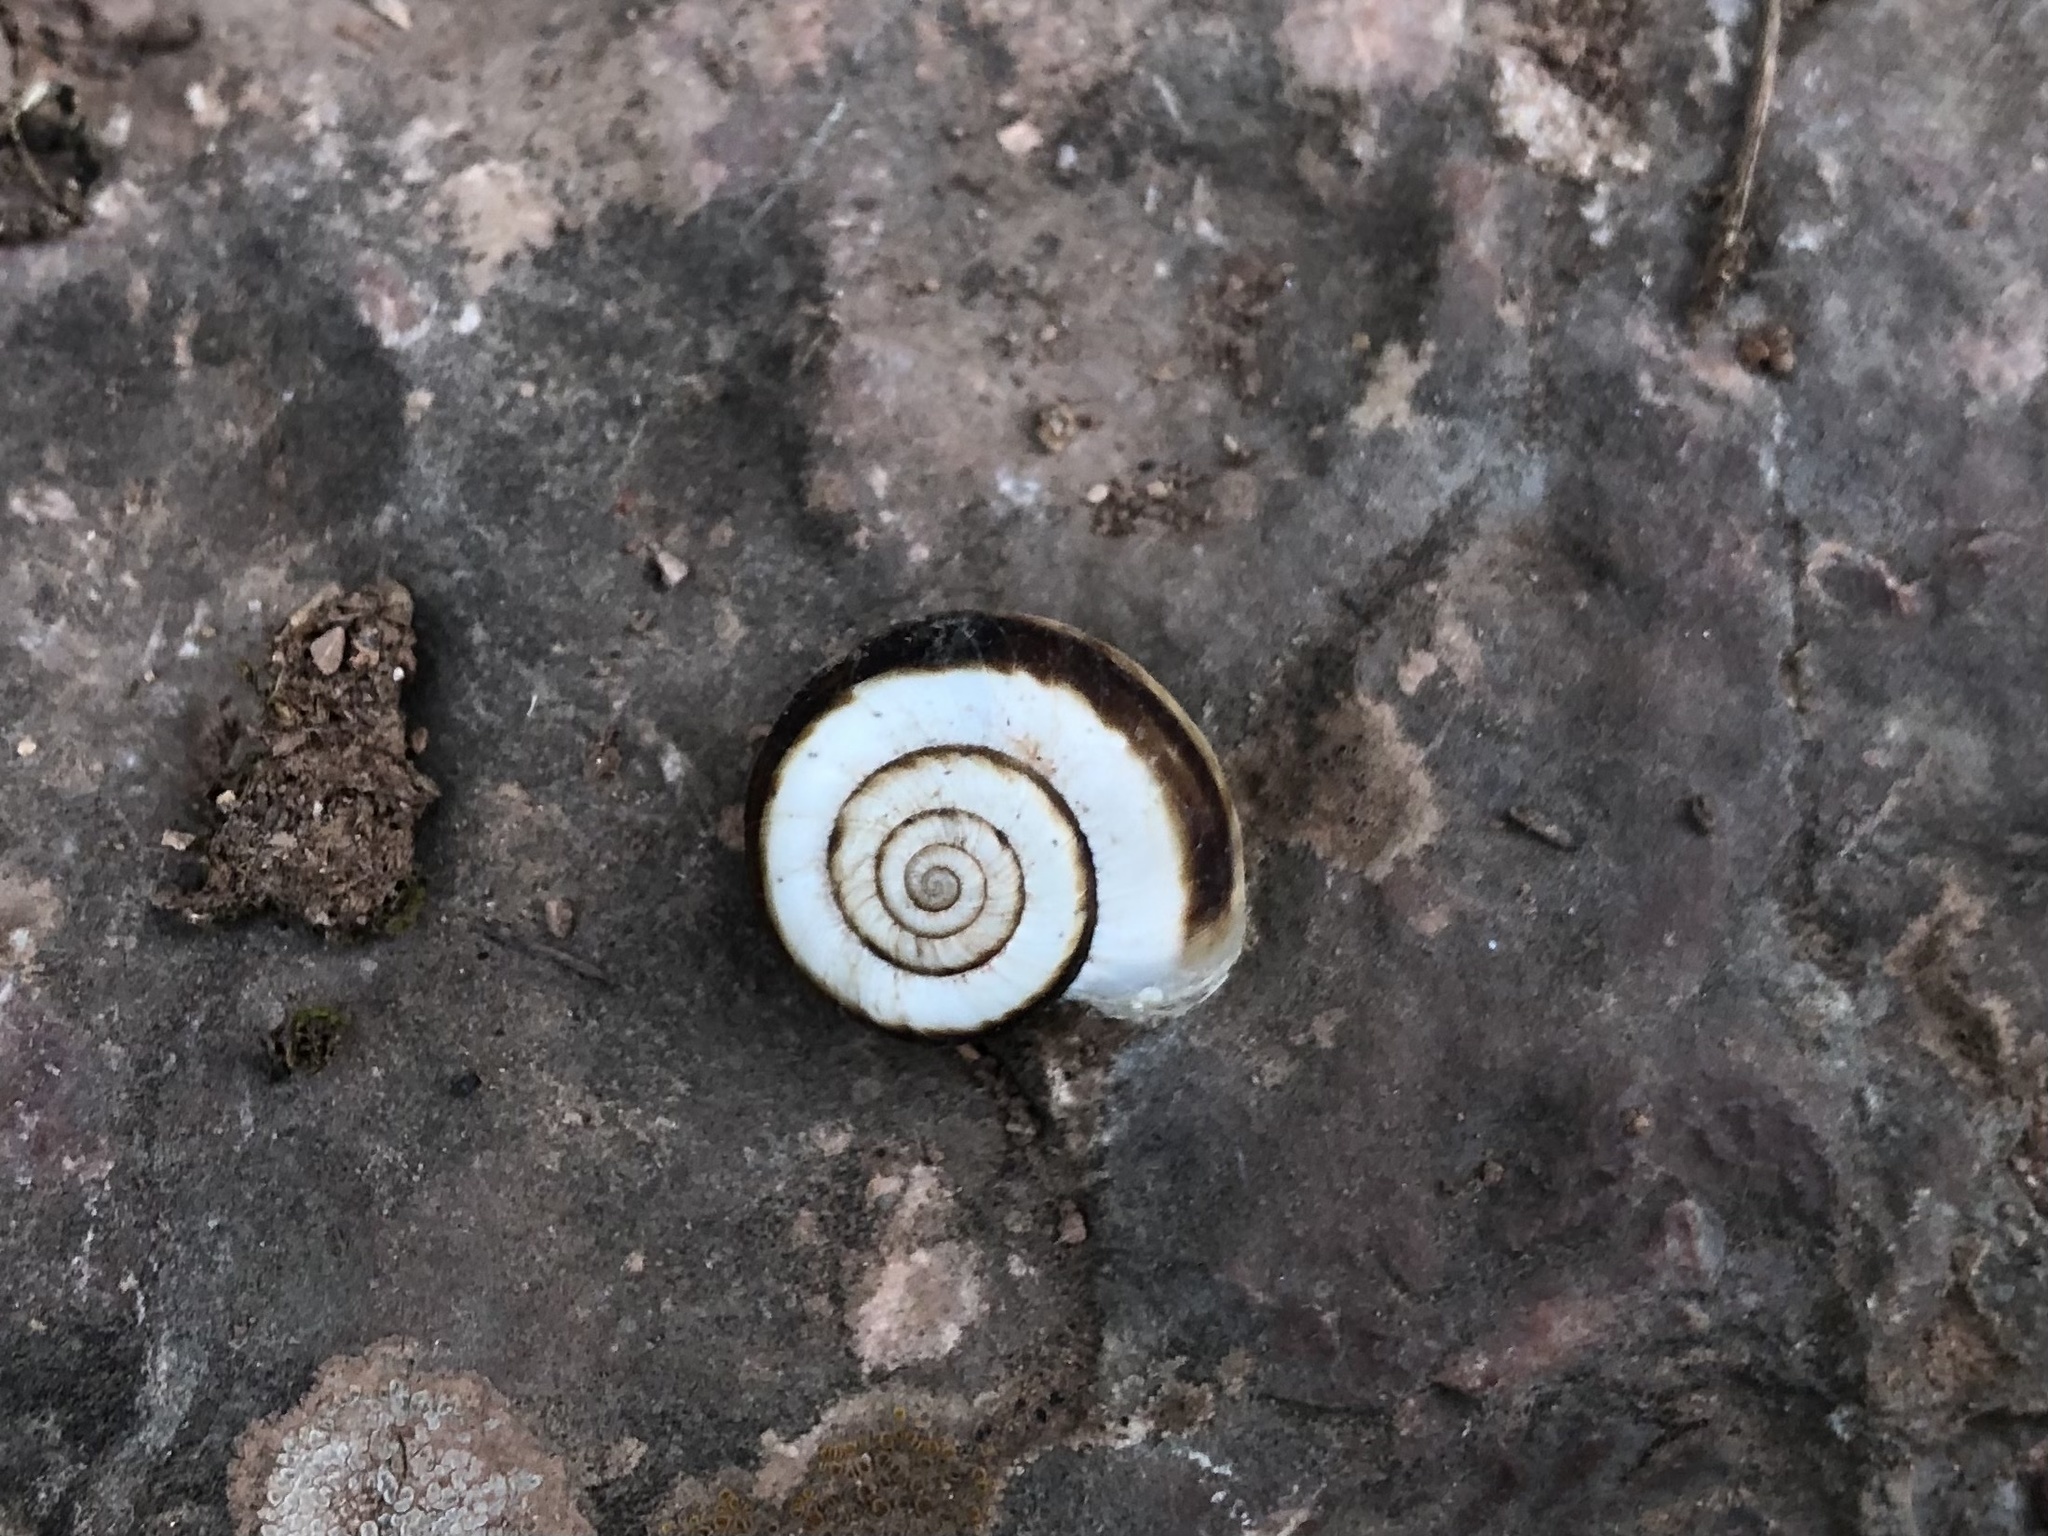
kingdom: Animalia
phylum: Mollusca
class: Gastropoda
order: Stylommatophora
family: Geomitridae
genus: Xerolenta
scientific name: Xerolenta obvia
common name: White heath snail
